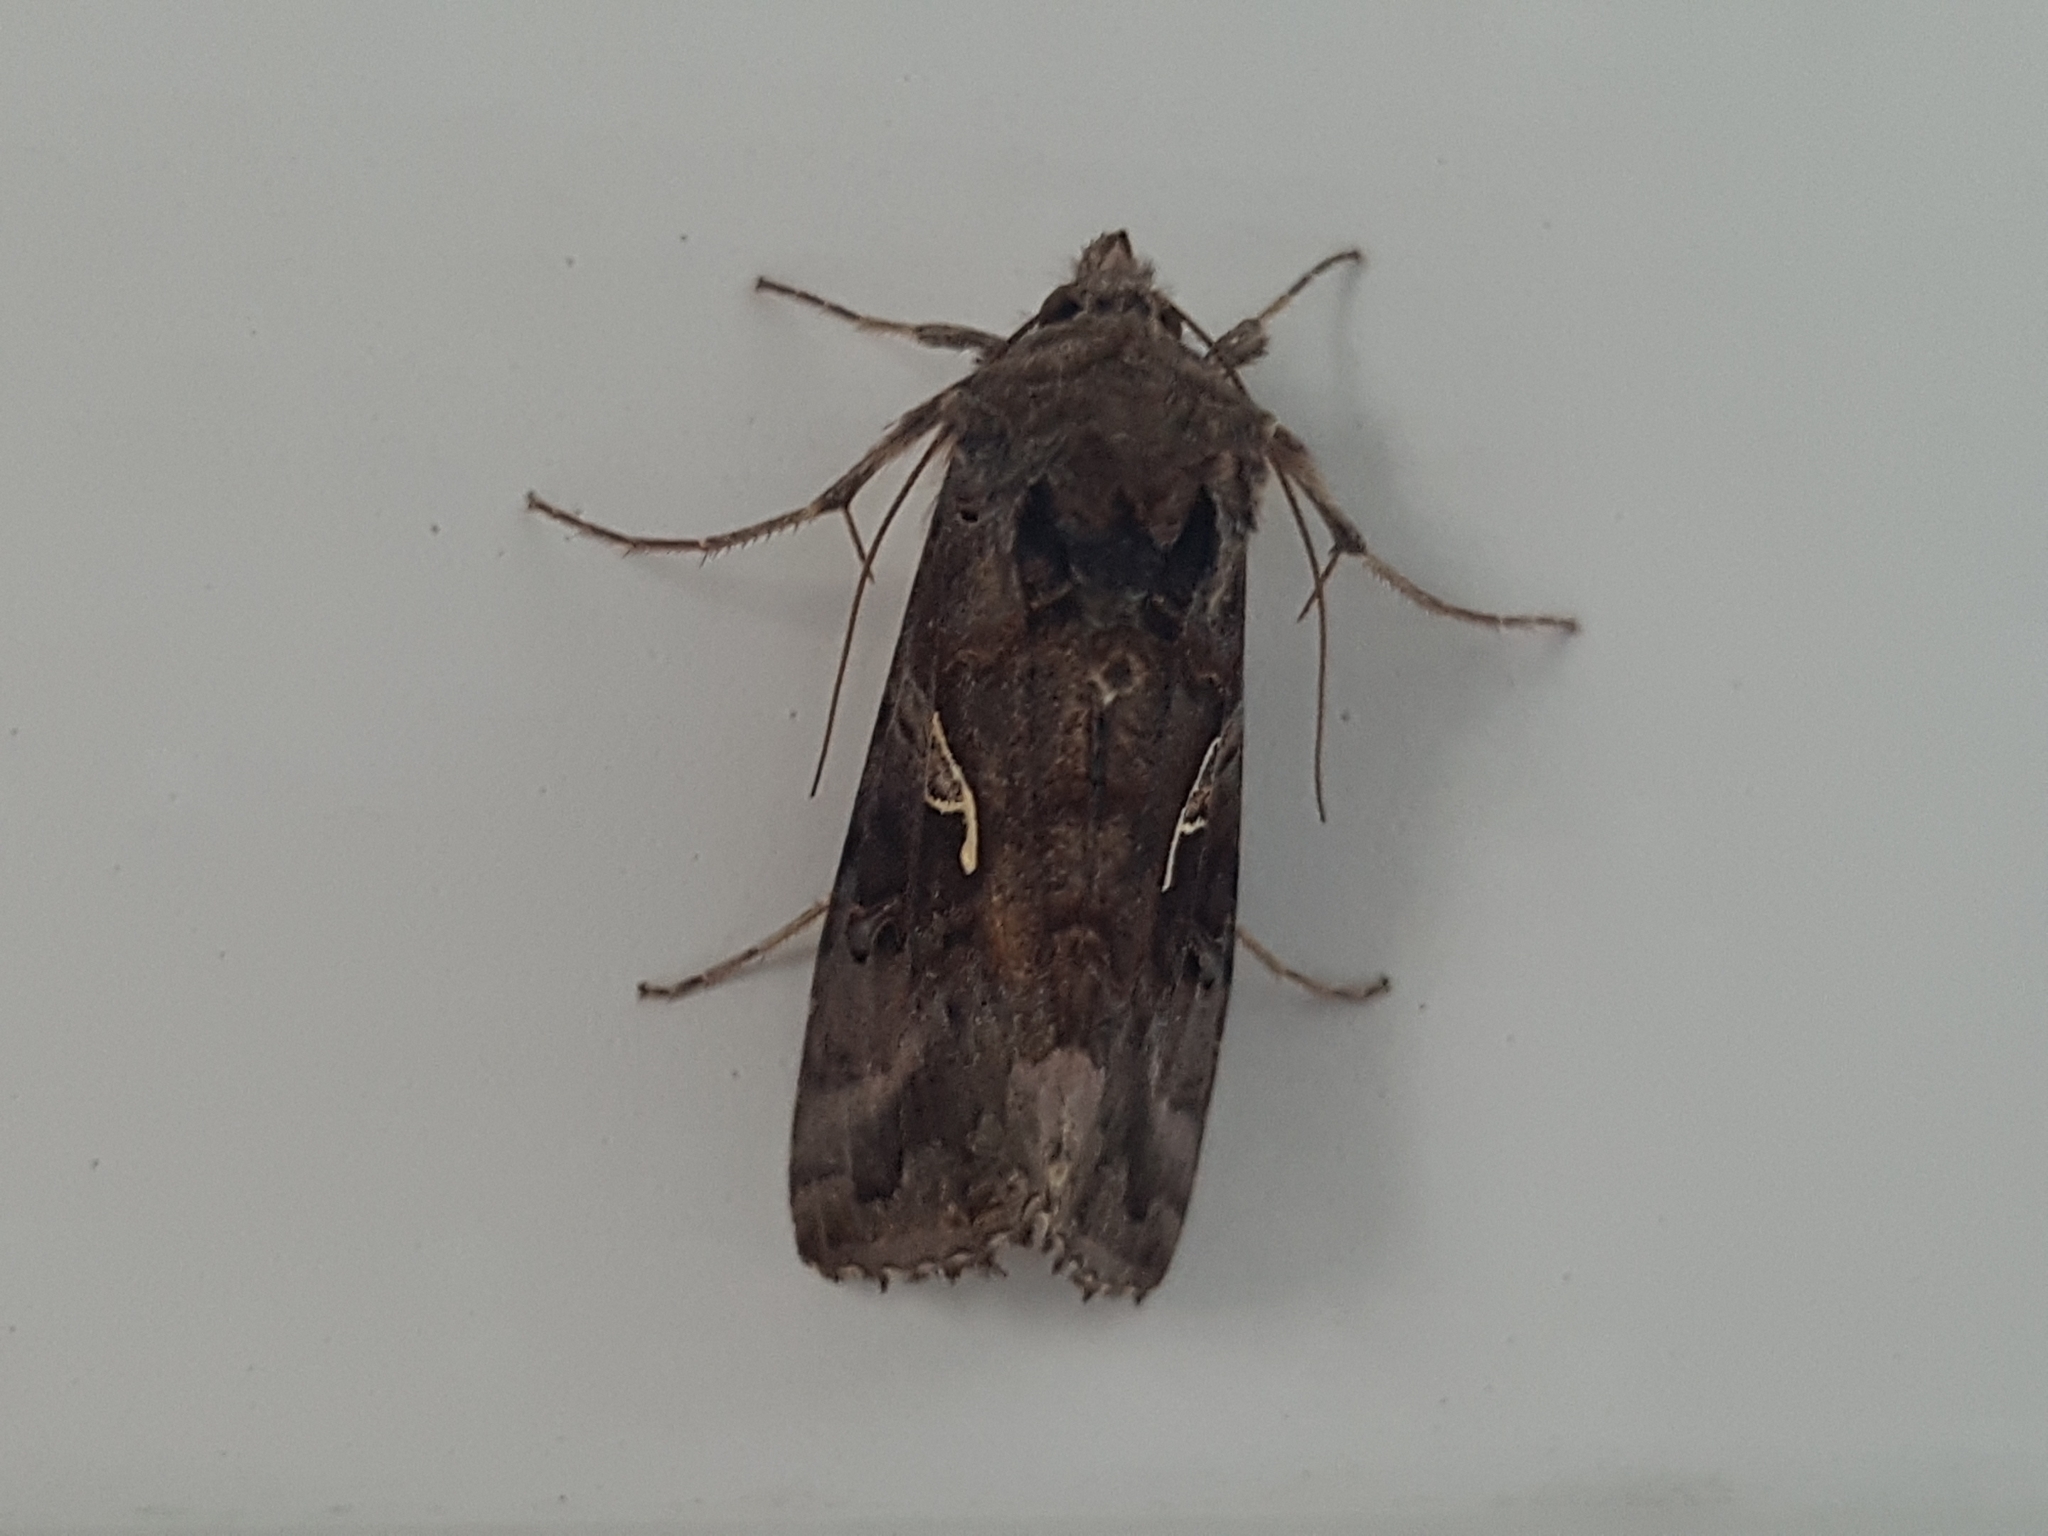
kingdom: Animalia
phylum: Arthropoda
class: Insecta
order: Lepidoptera
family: Noctuidae
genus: Autographa
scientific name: Autographa gamma
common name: Silver y
